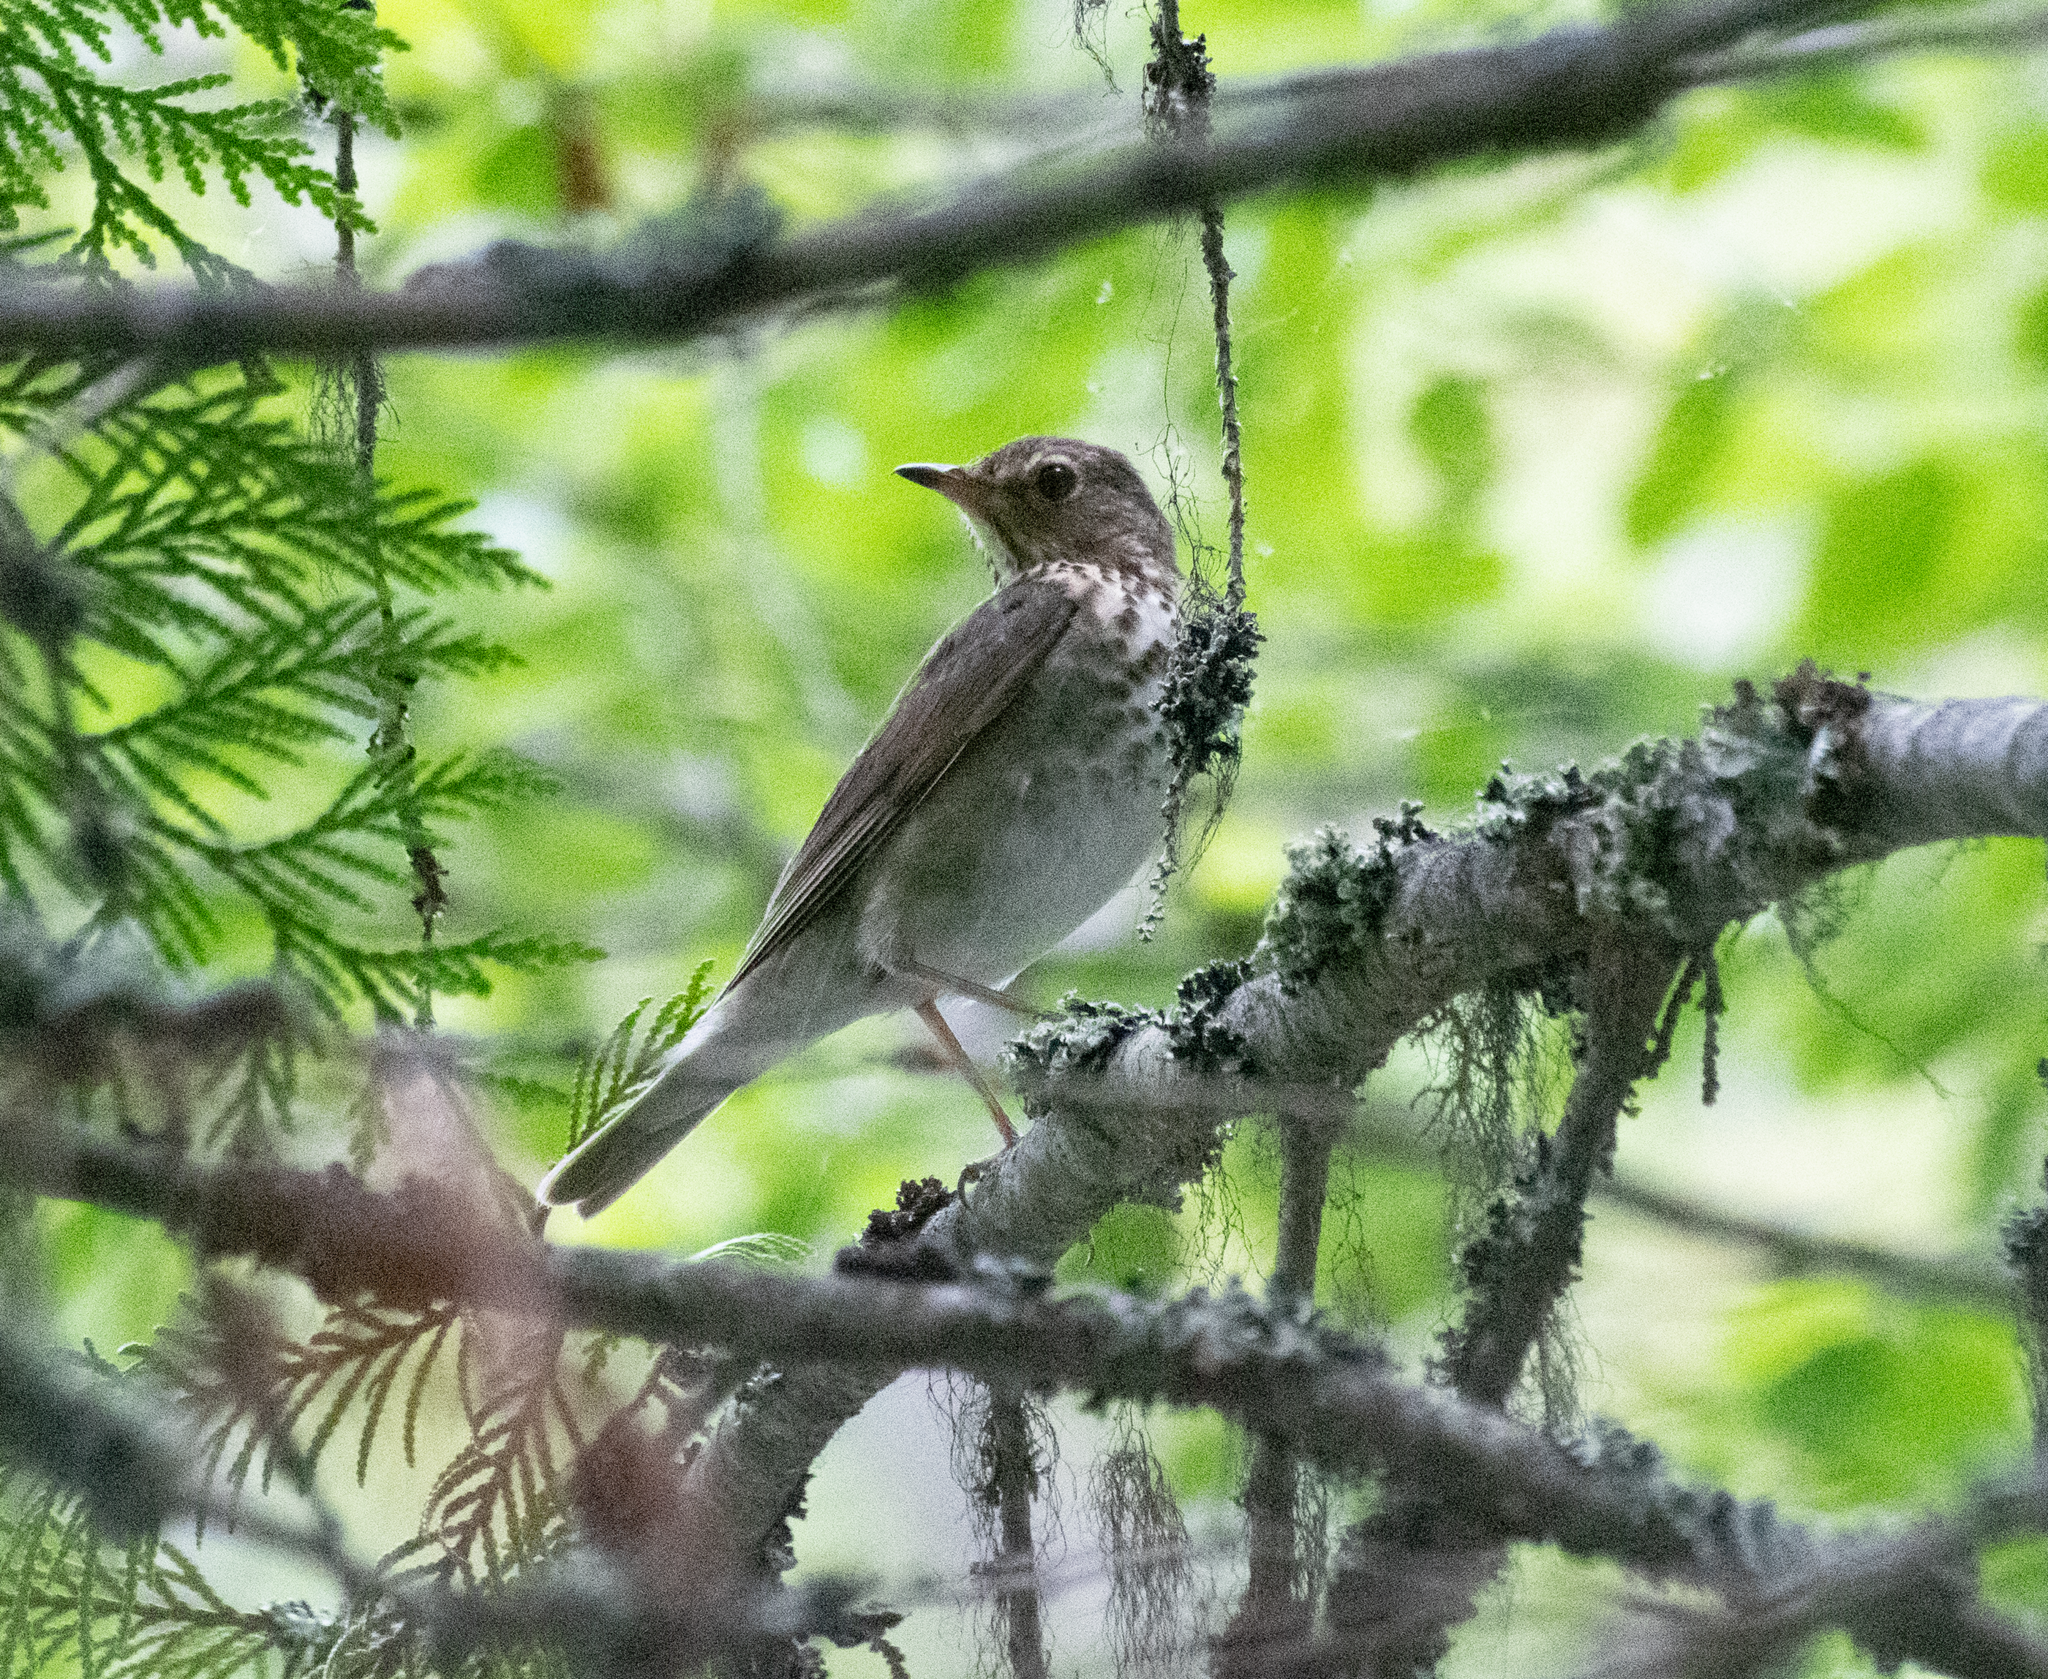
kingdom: Animalia
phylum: Chordata
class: Aves
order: Passeriformes
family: Turdidae
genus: Catharus
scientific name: Catharus ustulatus
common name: Swainson's thrush
